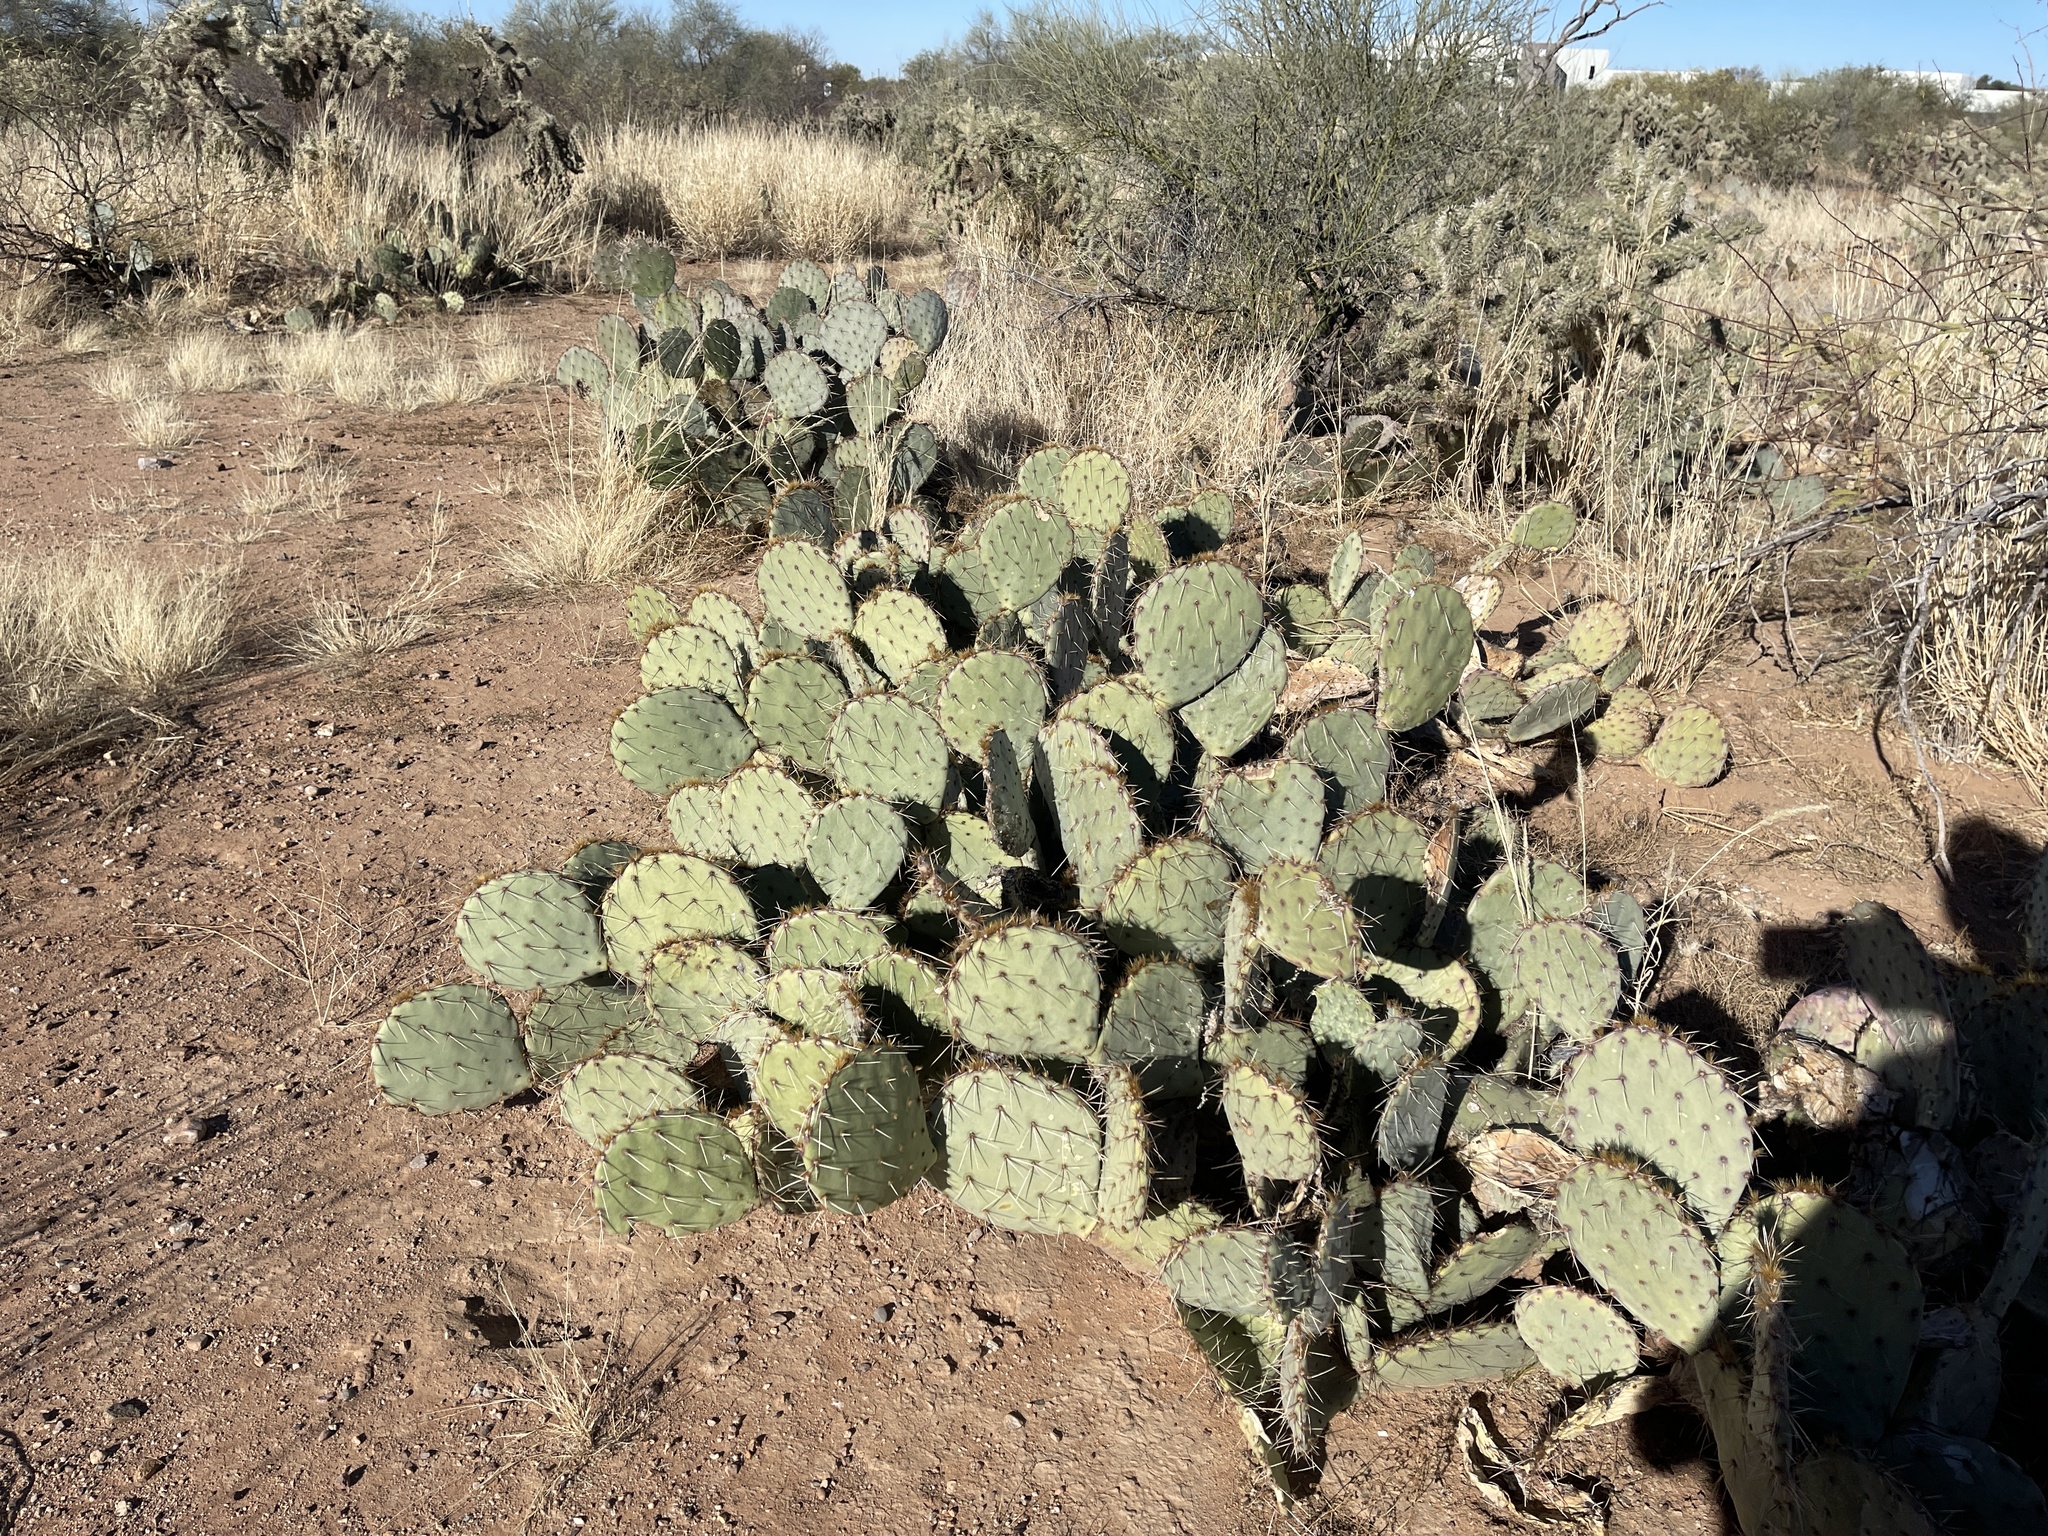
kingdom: Plantae
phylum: Tracheophyta
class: Magnoliopsida
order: Caryophyllales
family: Cactaceae
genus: Opuntia
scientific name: Opuntia engelmannii
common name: Cactus-apple
